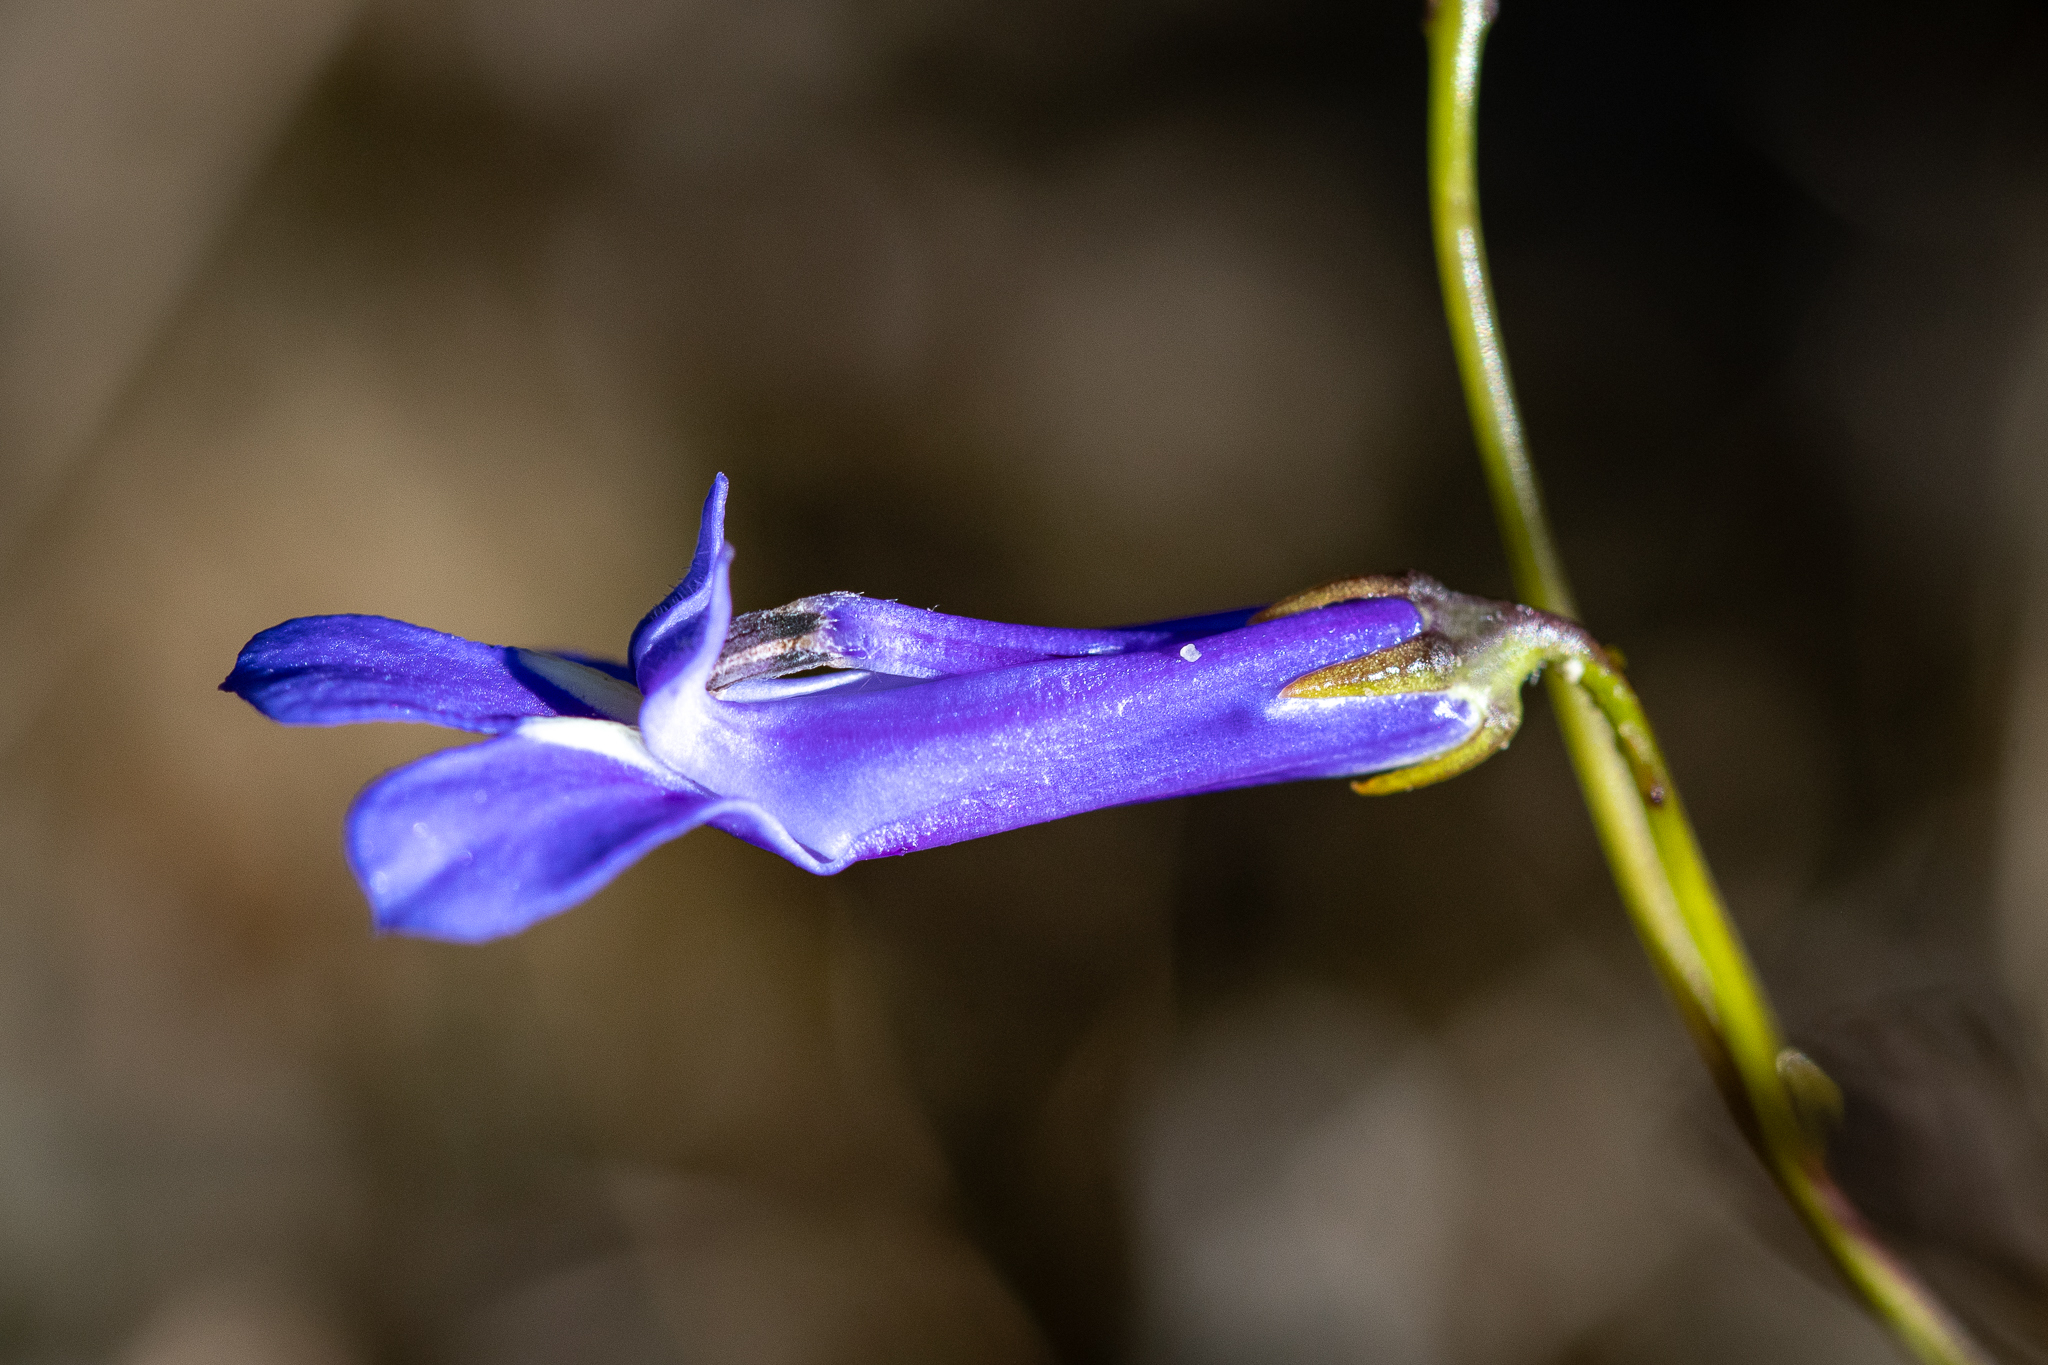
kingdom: Plantae
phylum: Tracheophyta
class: Magnoliopsida
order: Asterales
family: Campanulaceae
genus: Lobelia
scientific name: Lobelia coronopifolia
